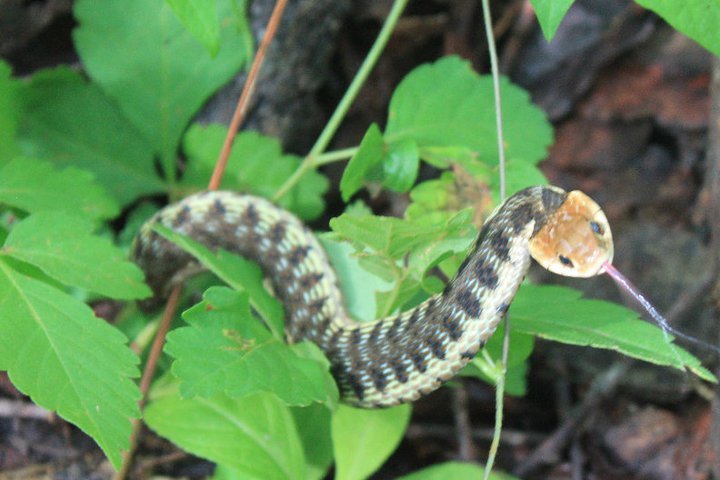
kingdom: Animalia
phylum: Chordata
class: Squamata
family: Colubridae
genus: Thamnophis
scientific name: Thamnophis chrysocephalus
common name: Goldenhead garter snake
